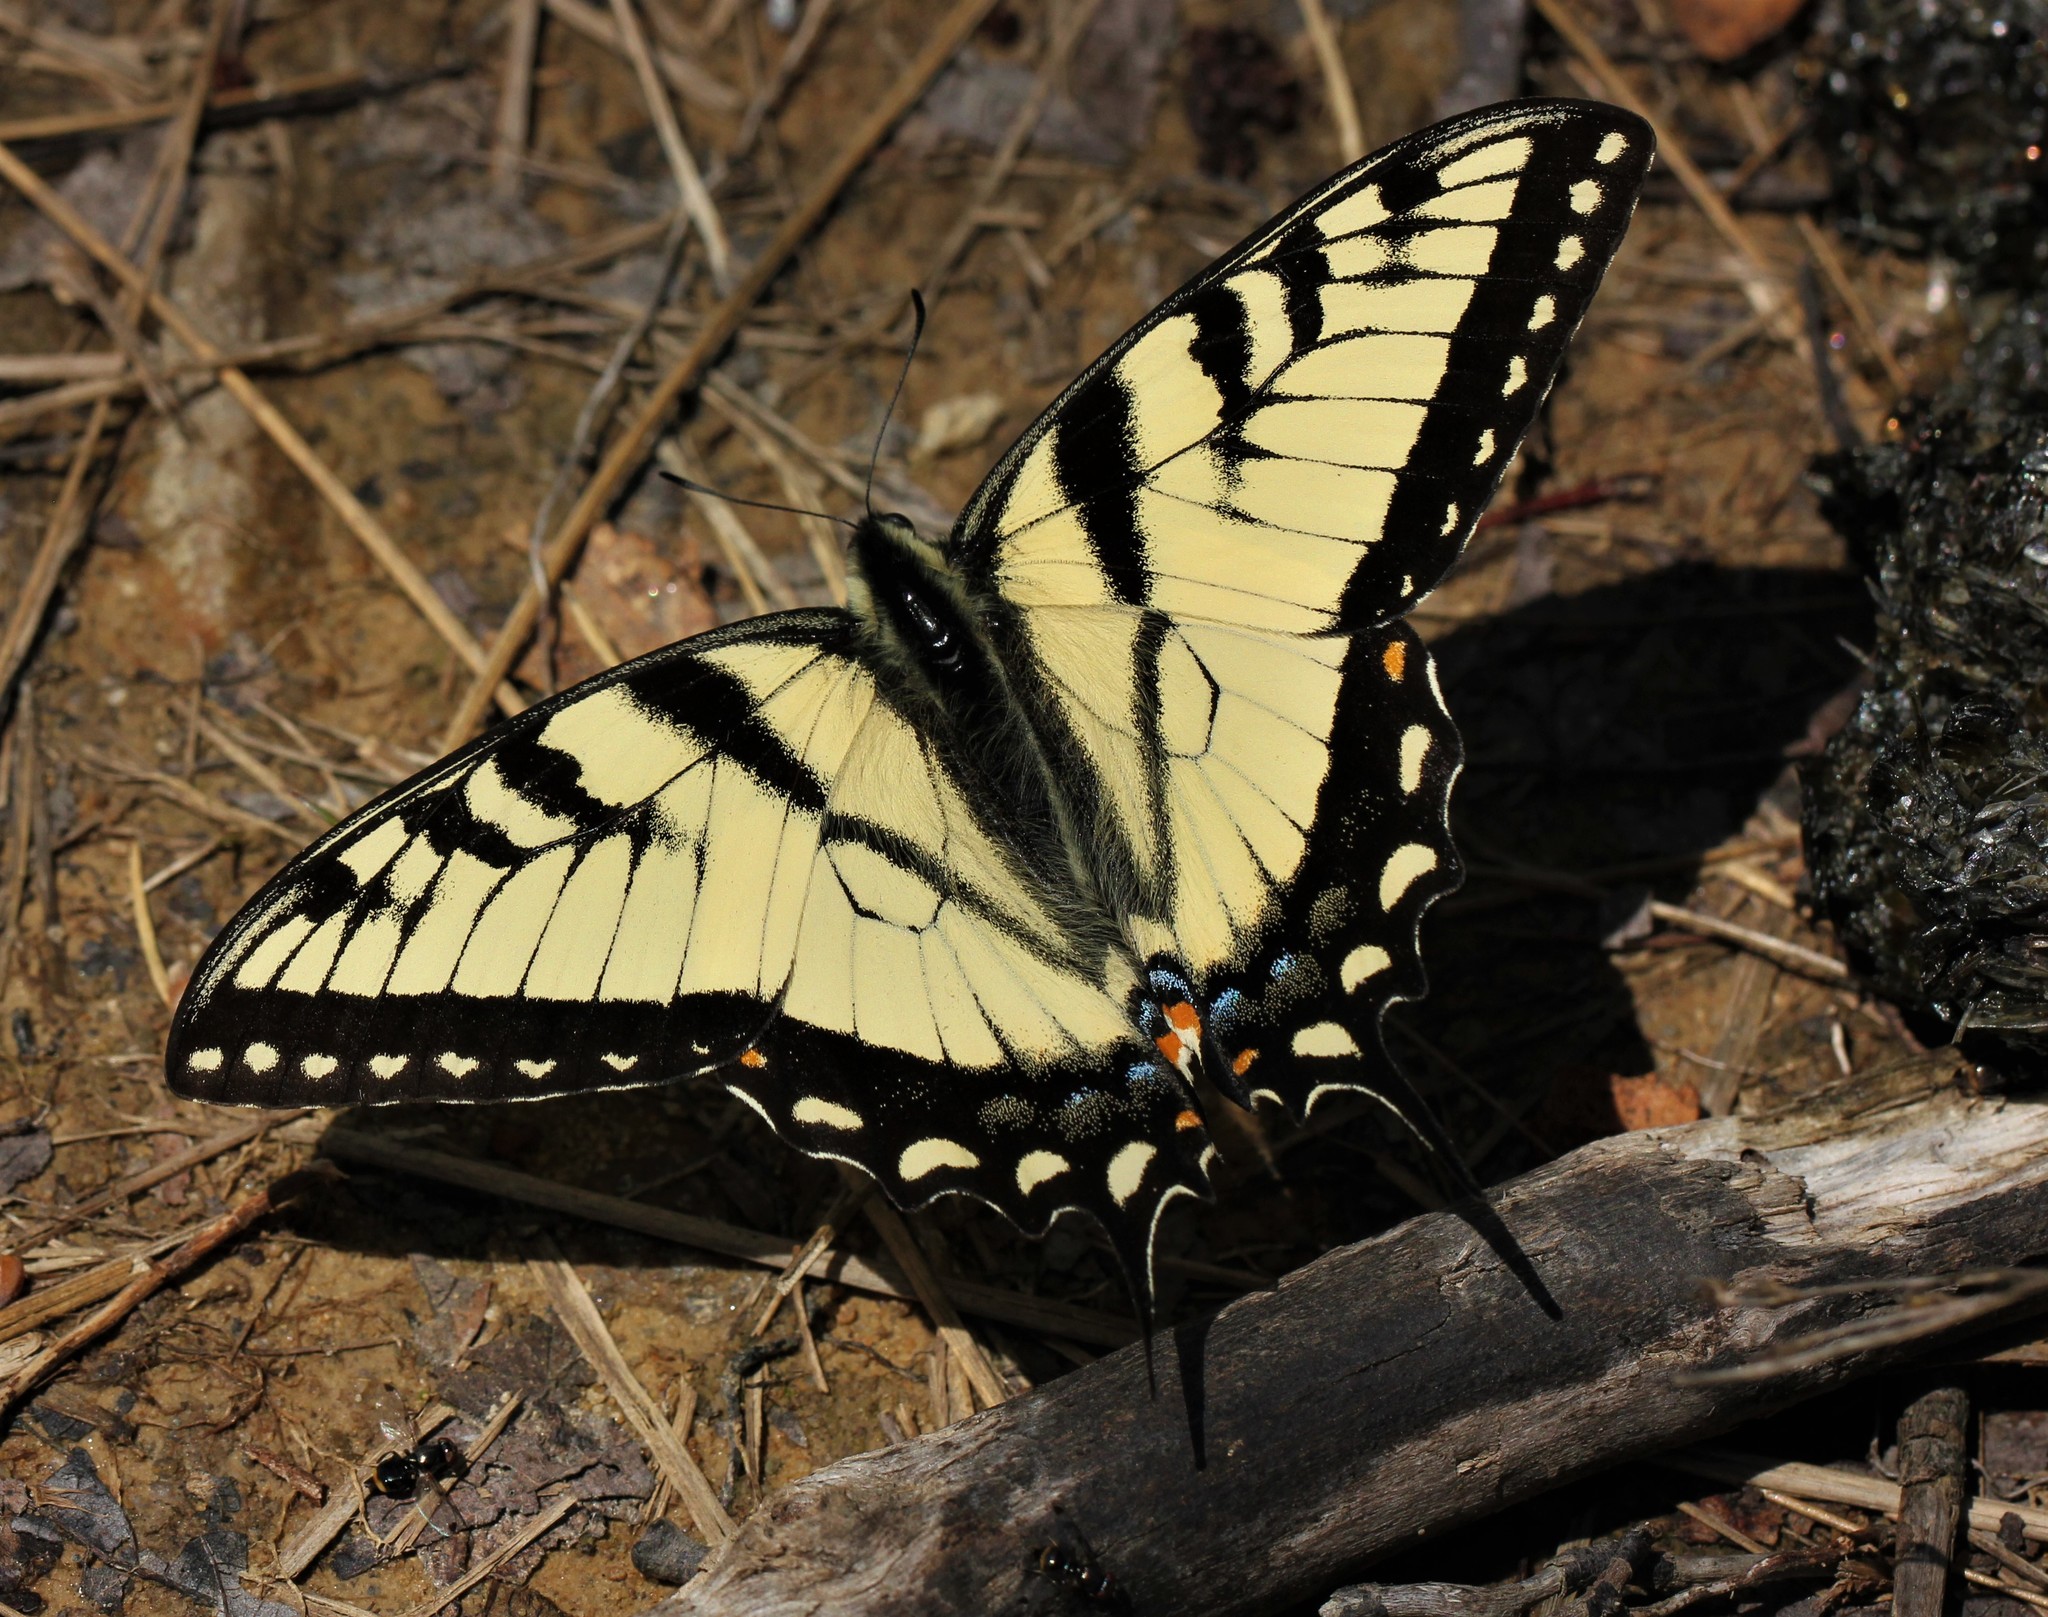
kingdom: Animalia
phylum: Arthropoda
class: Insecta
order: Lepidoptera
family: Papilionidae
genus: Papilio
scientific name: Papilio glaucus
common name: Tiger swallowtail
